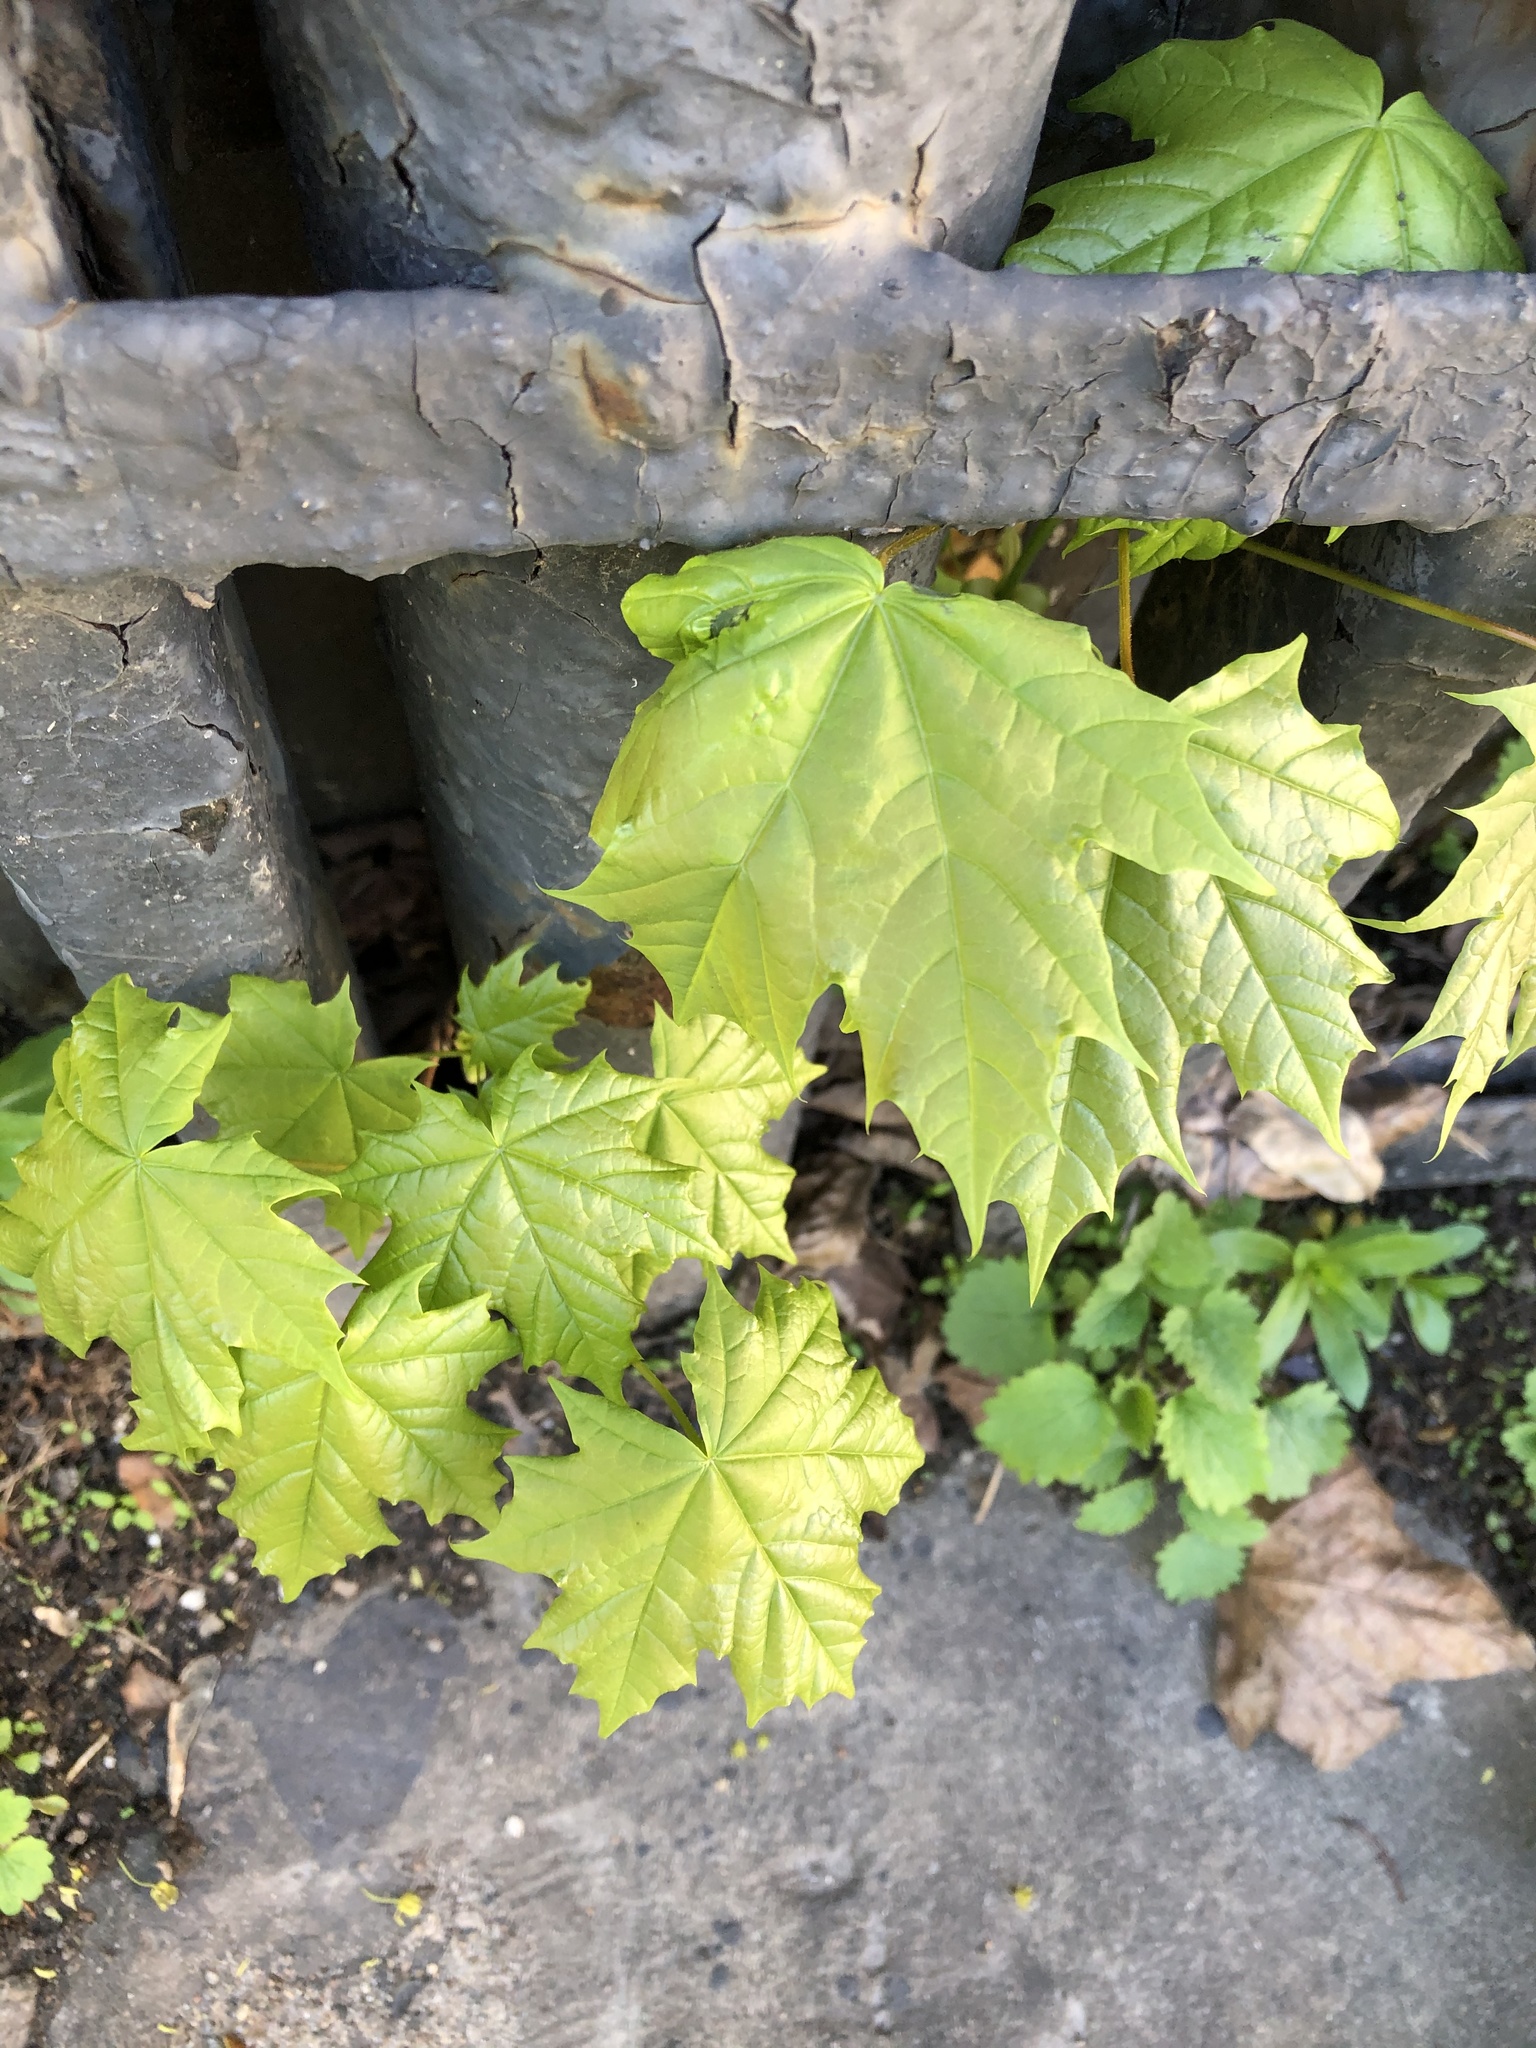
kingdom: Plantae
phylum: Tracheophyta
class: Magnoliopsida
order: Sapindales
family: Sapindaceae
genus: Acer
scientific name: Acer platanoides
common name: Norway maple
